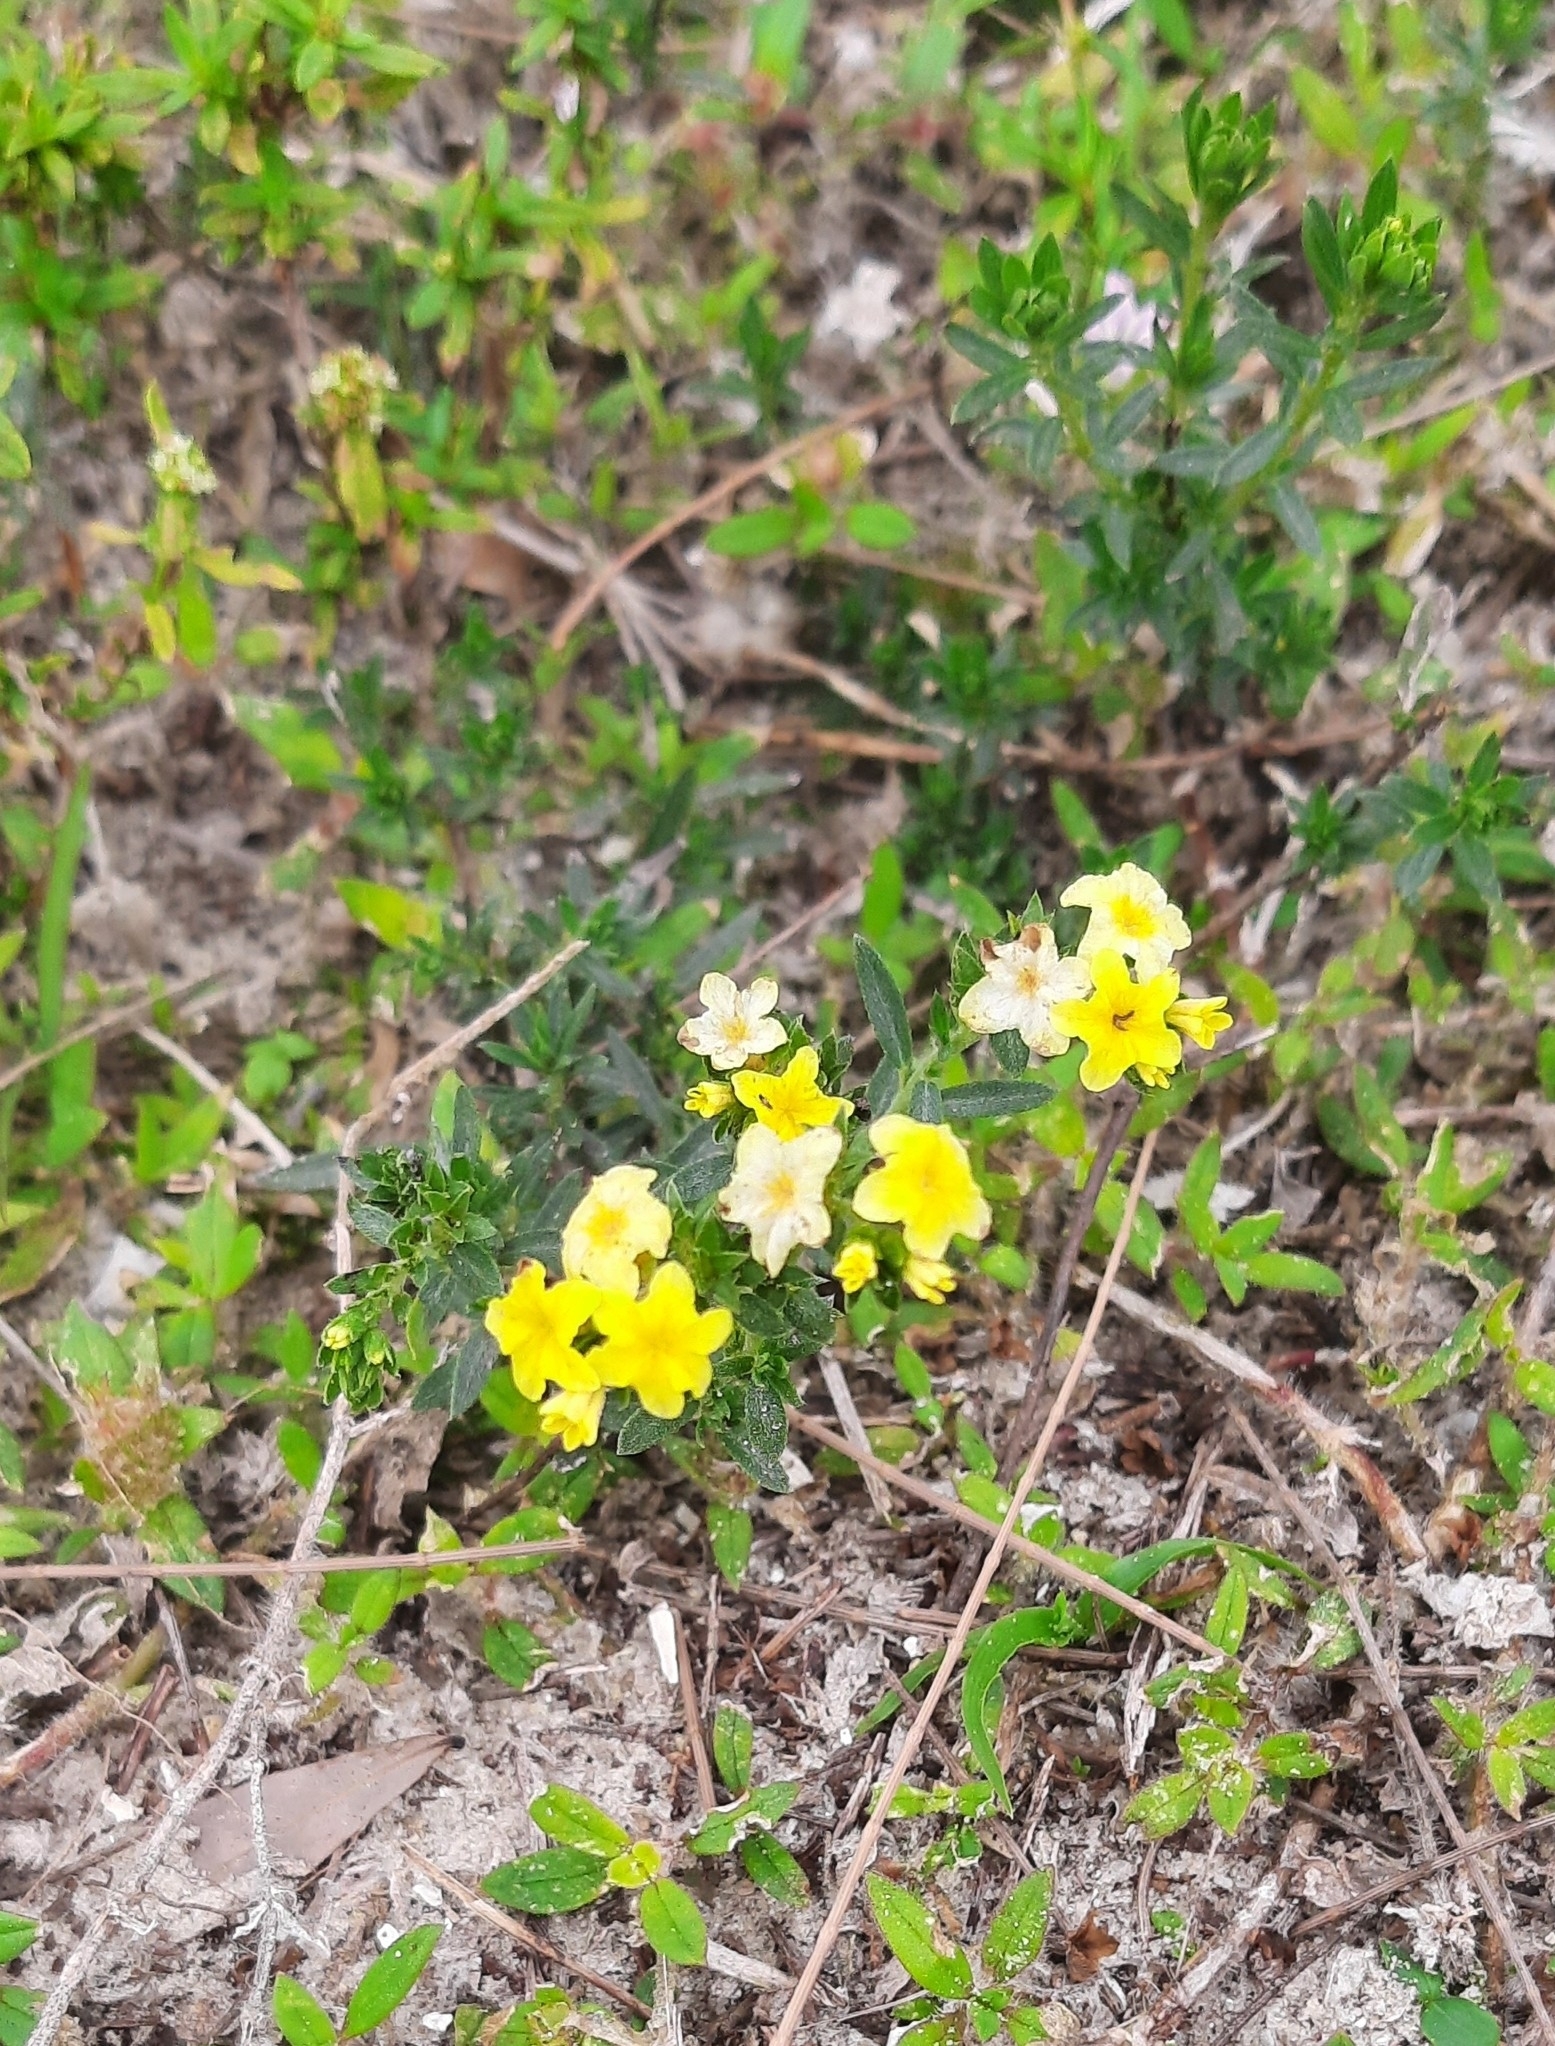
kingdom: Plantae
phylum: Tracheophyta
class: Magnoliopsida
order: Boraginales
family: Heliotropiaceae
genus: Euploca
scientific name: Euploca polyphylla
